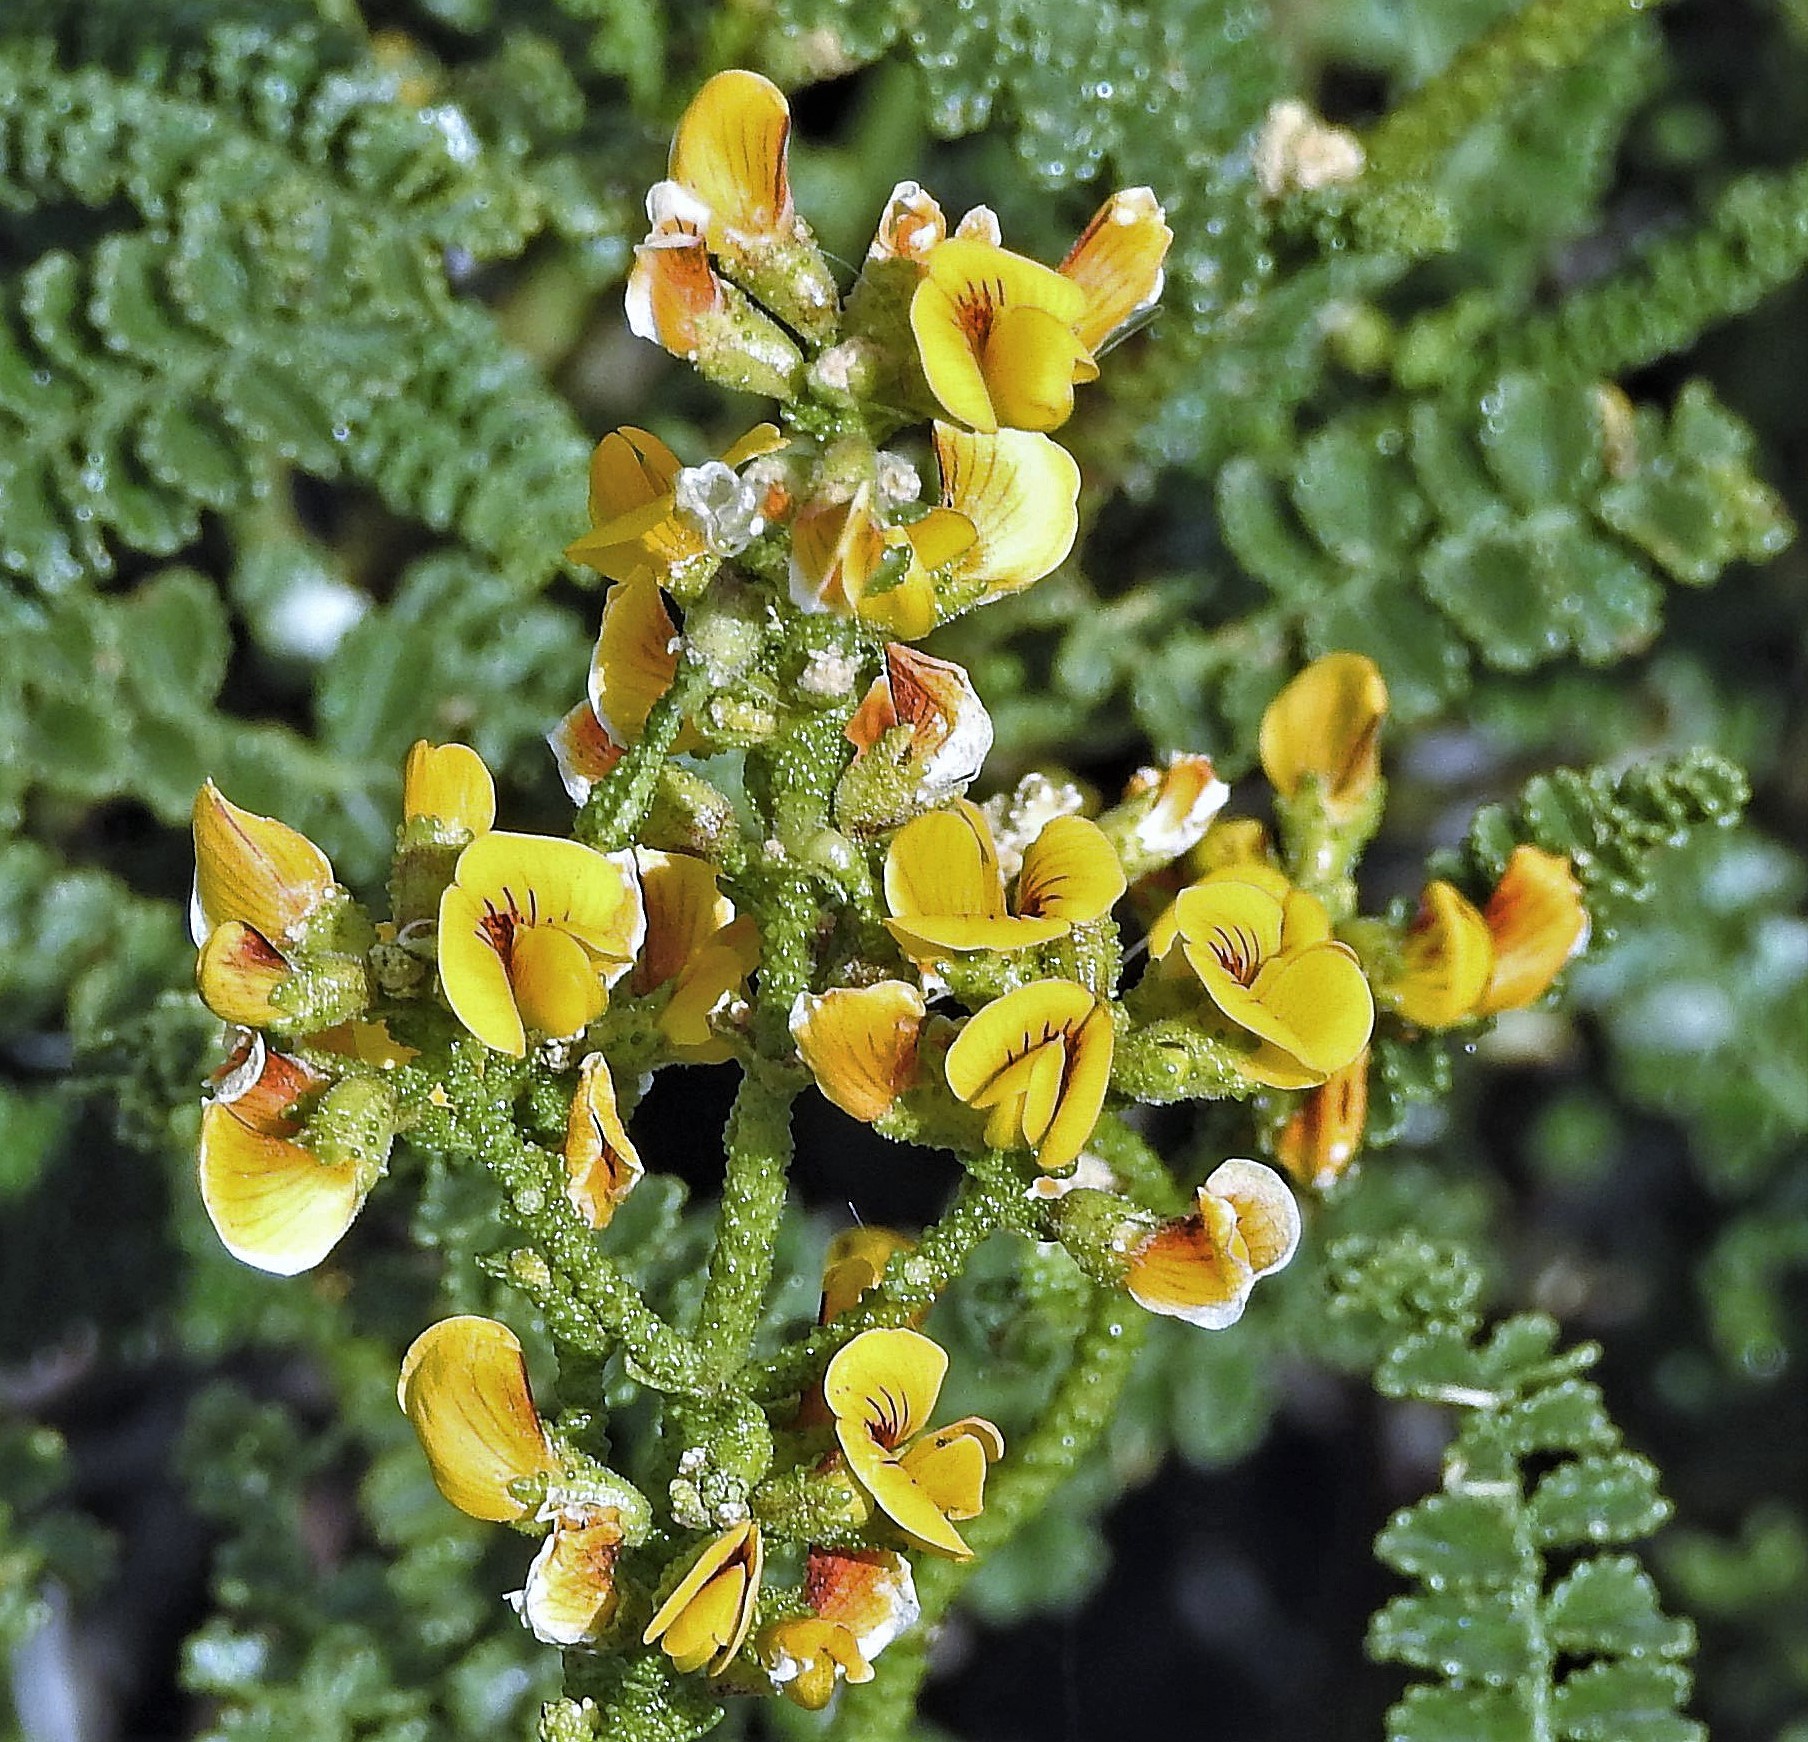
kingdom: Plantae
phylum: Tracheophyta
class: Magnoliopsida
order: Fabales
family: Fabaceae
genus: Adesmia
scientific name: Adesmia boronioides
